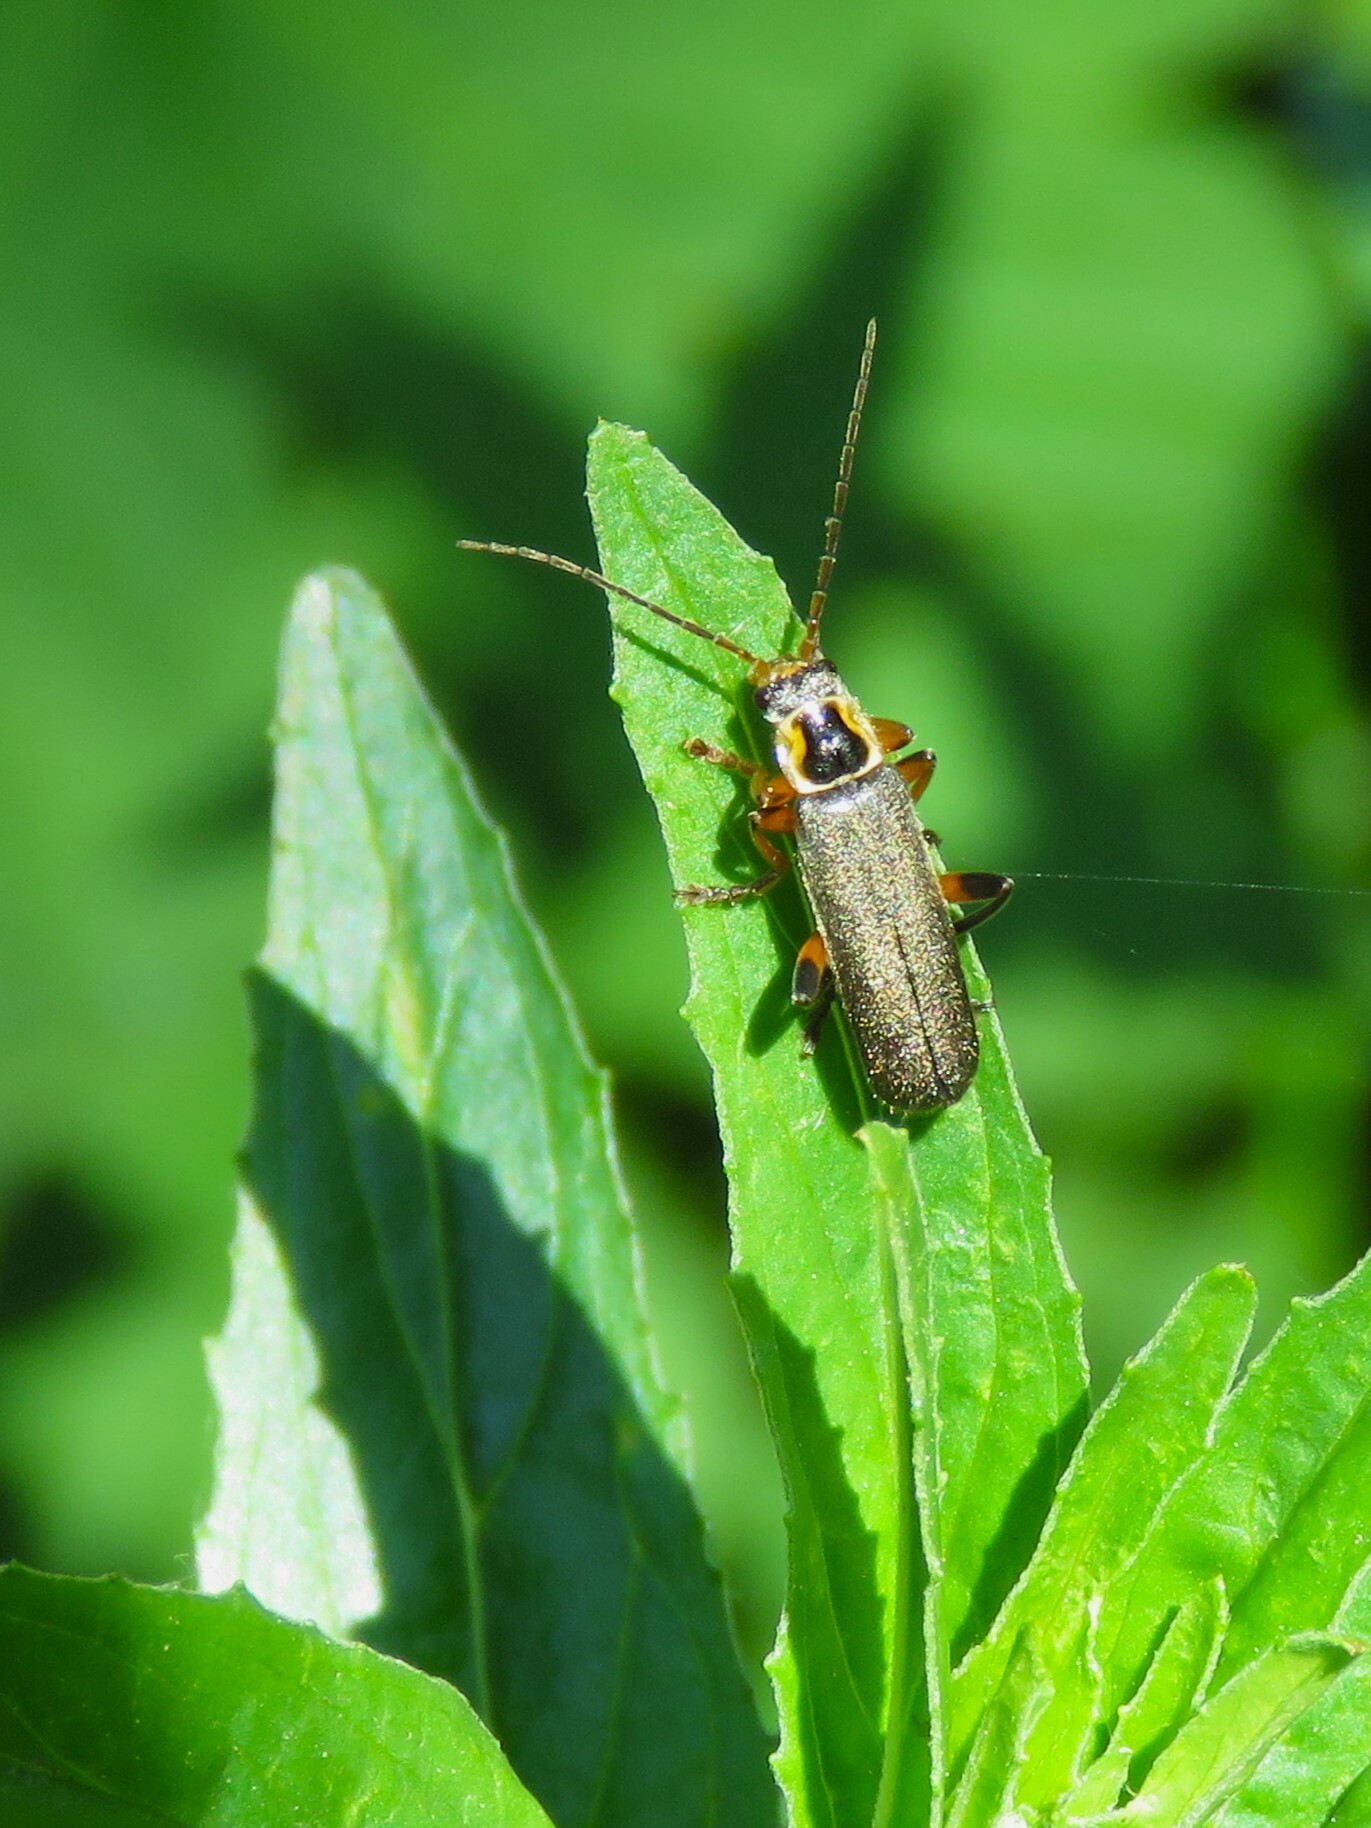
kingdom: Animalia
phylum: Arthropoda
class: Insecta
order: Coleoptera
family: Cantharidae
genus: Cantharis
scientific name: Cantharis nigricans
